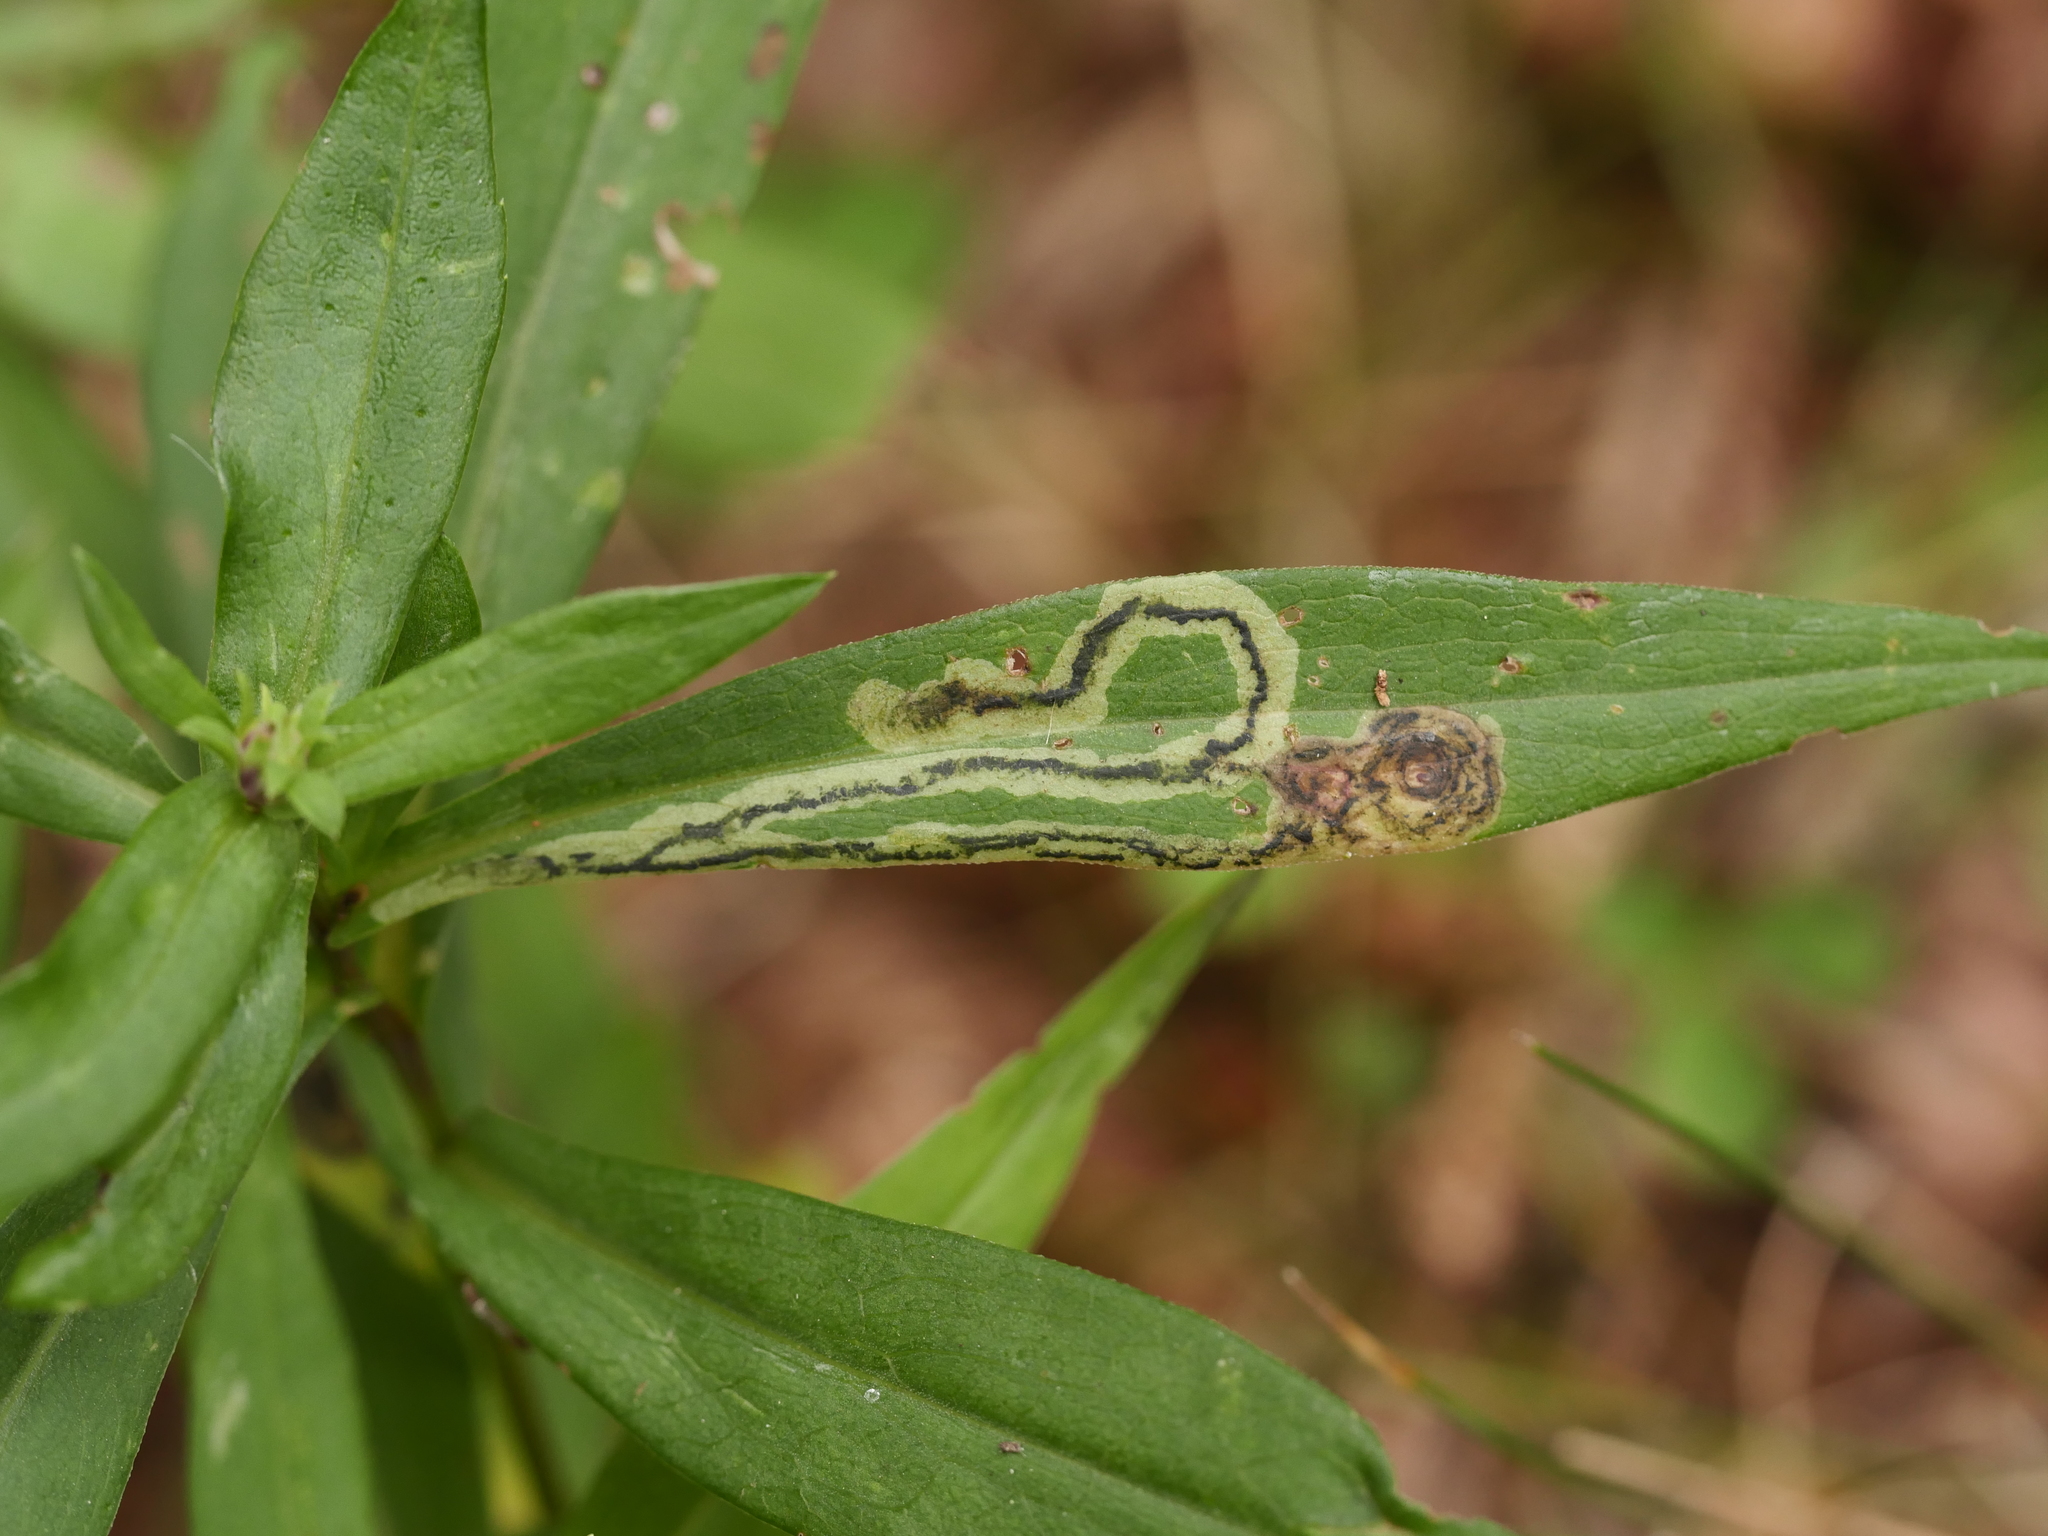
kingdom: Animalia
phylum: Arthropoda
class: Insecta
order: Diptera
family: Agromyzidae
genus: Liriomyza
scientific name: Liriomyza eupatorii
